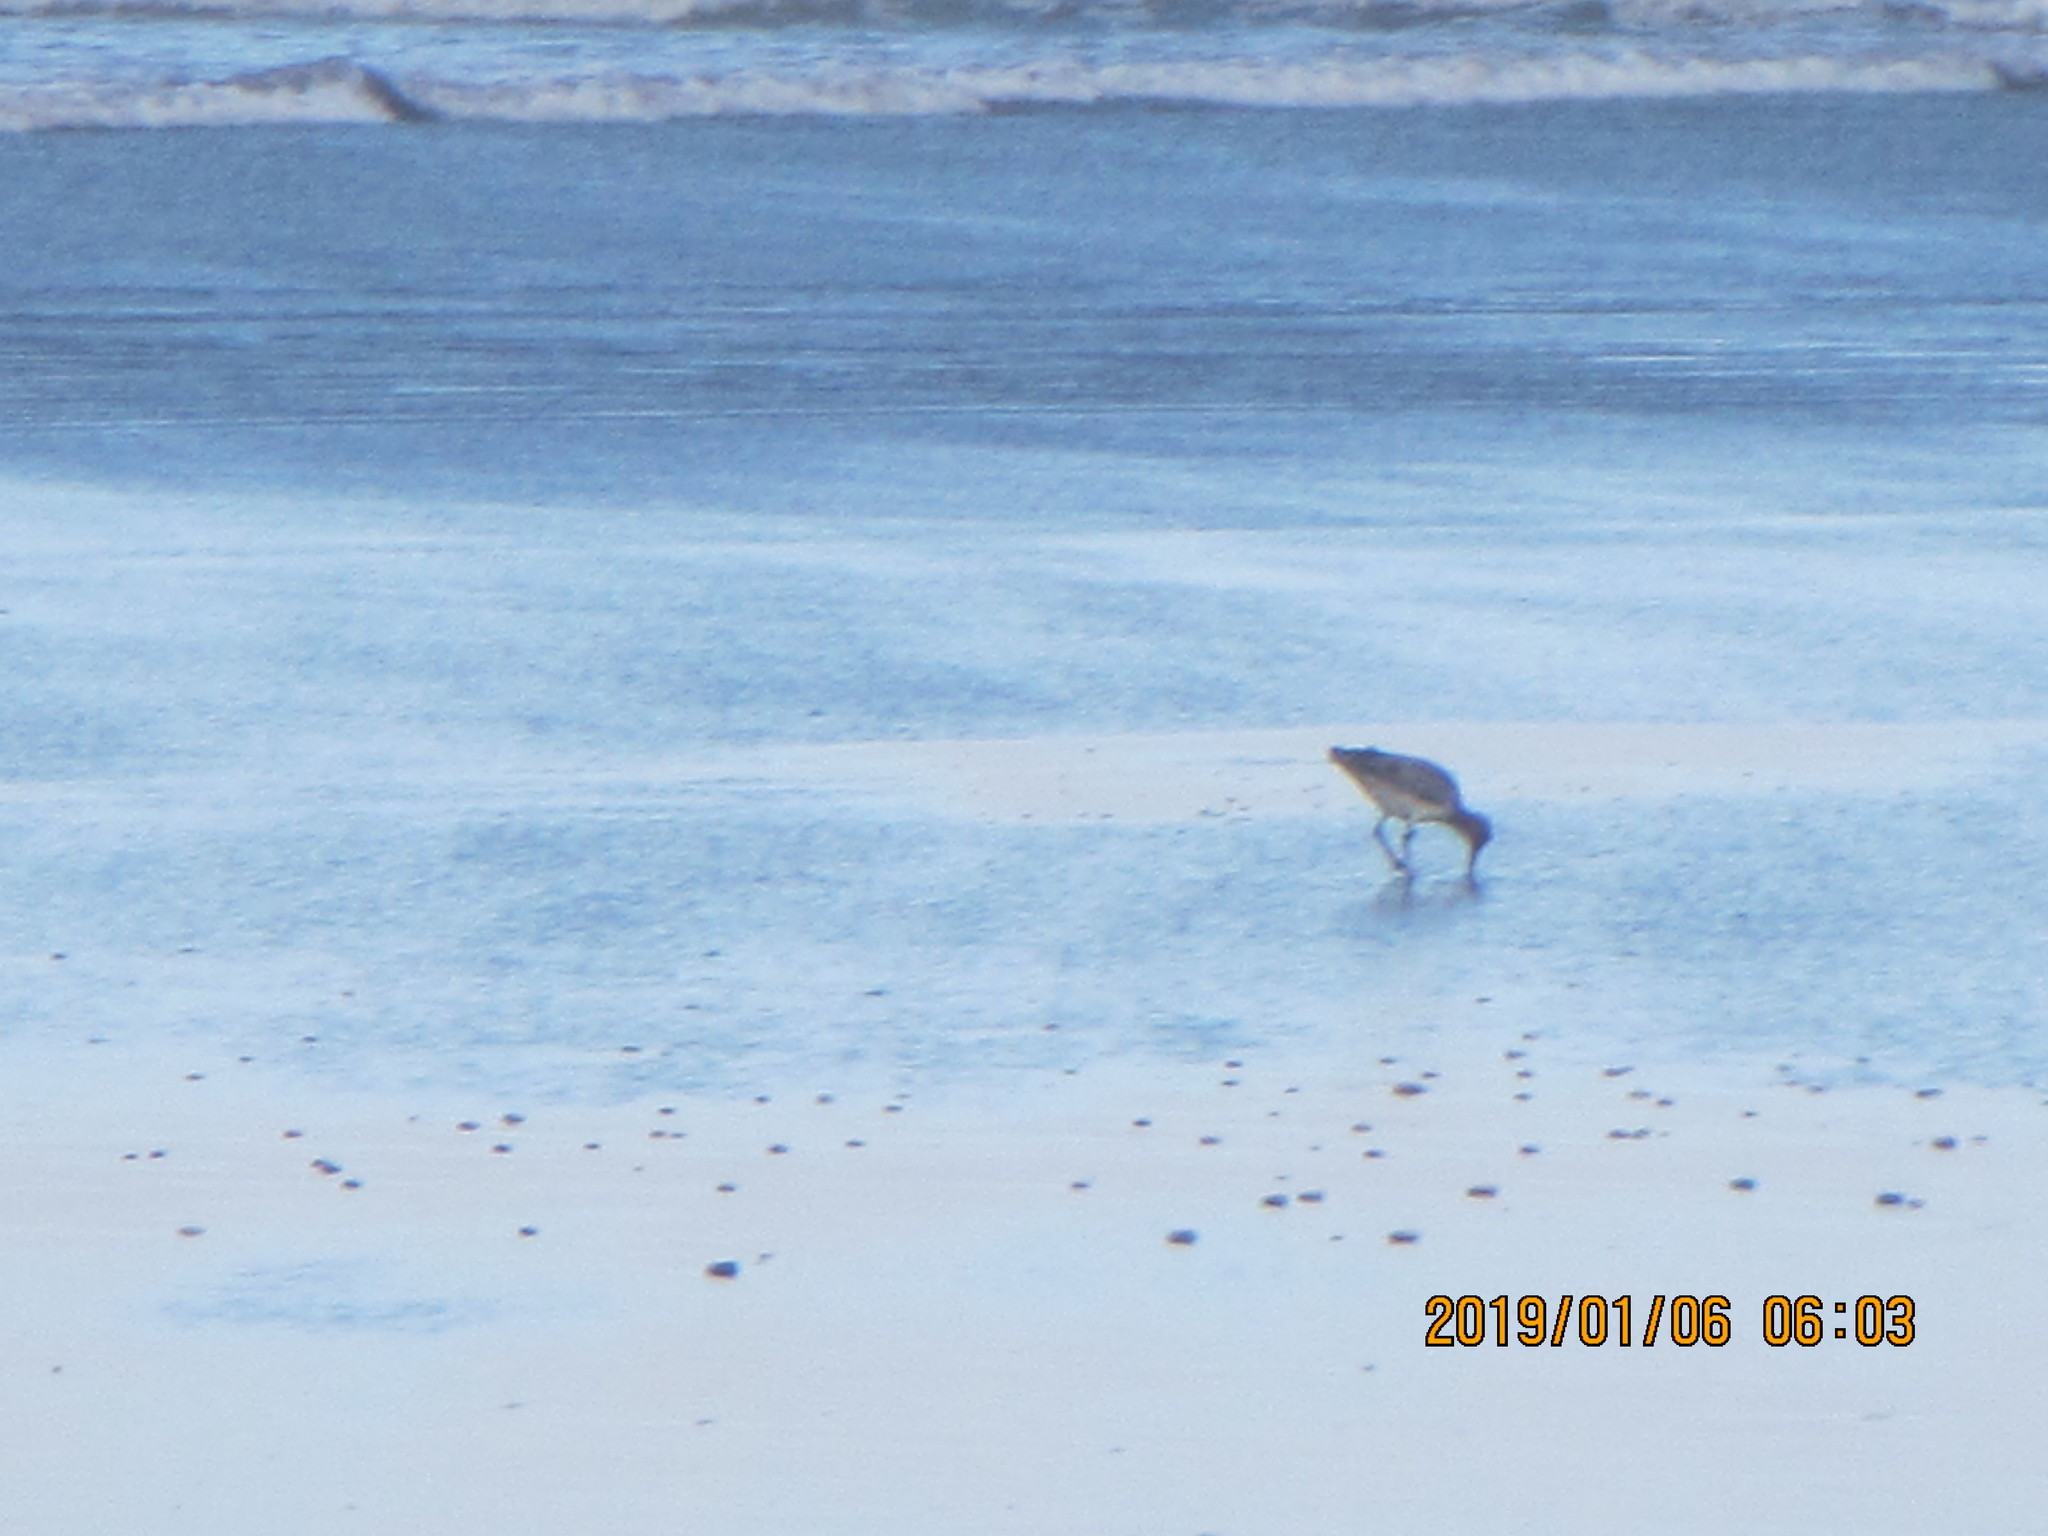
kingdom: Animalia
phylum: Chordata
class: Aves
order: Charadriiformes
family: Scolopacidae
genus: Limosa
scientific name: Limosa lapponica
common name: Bar-tailed godwit
